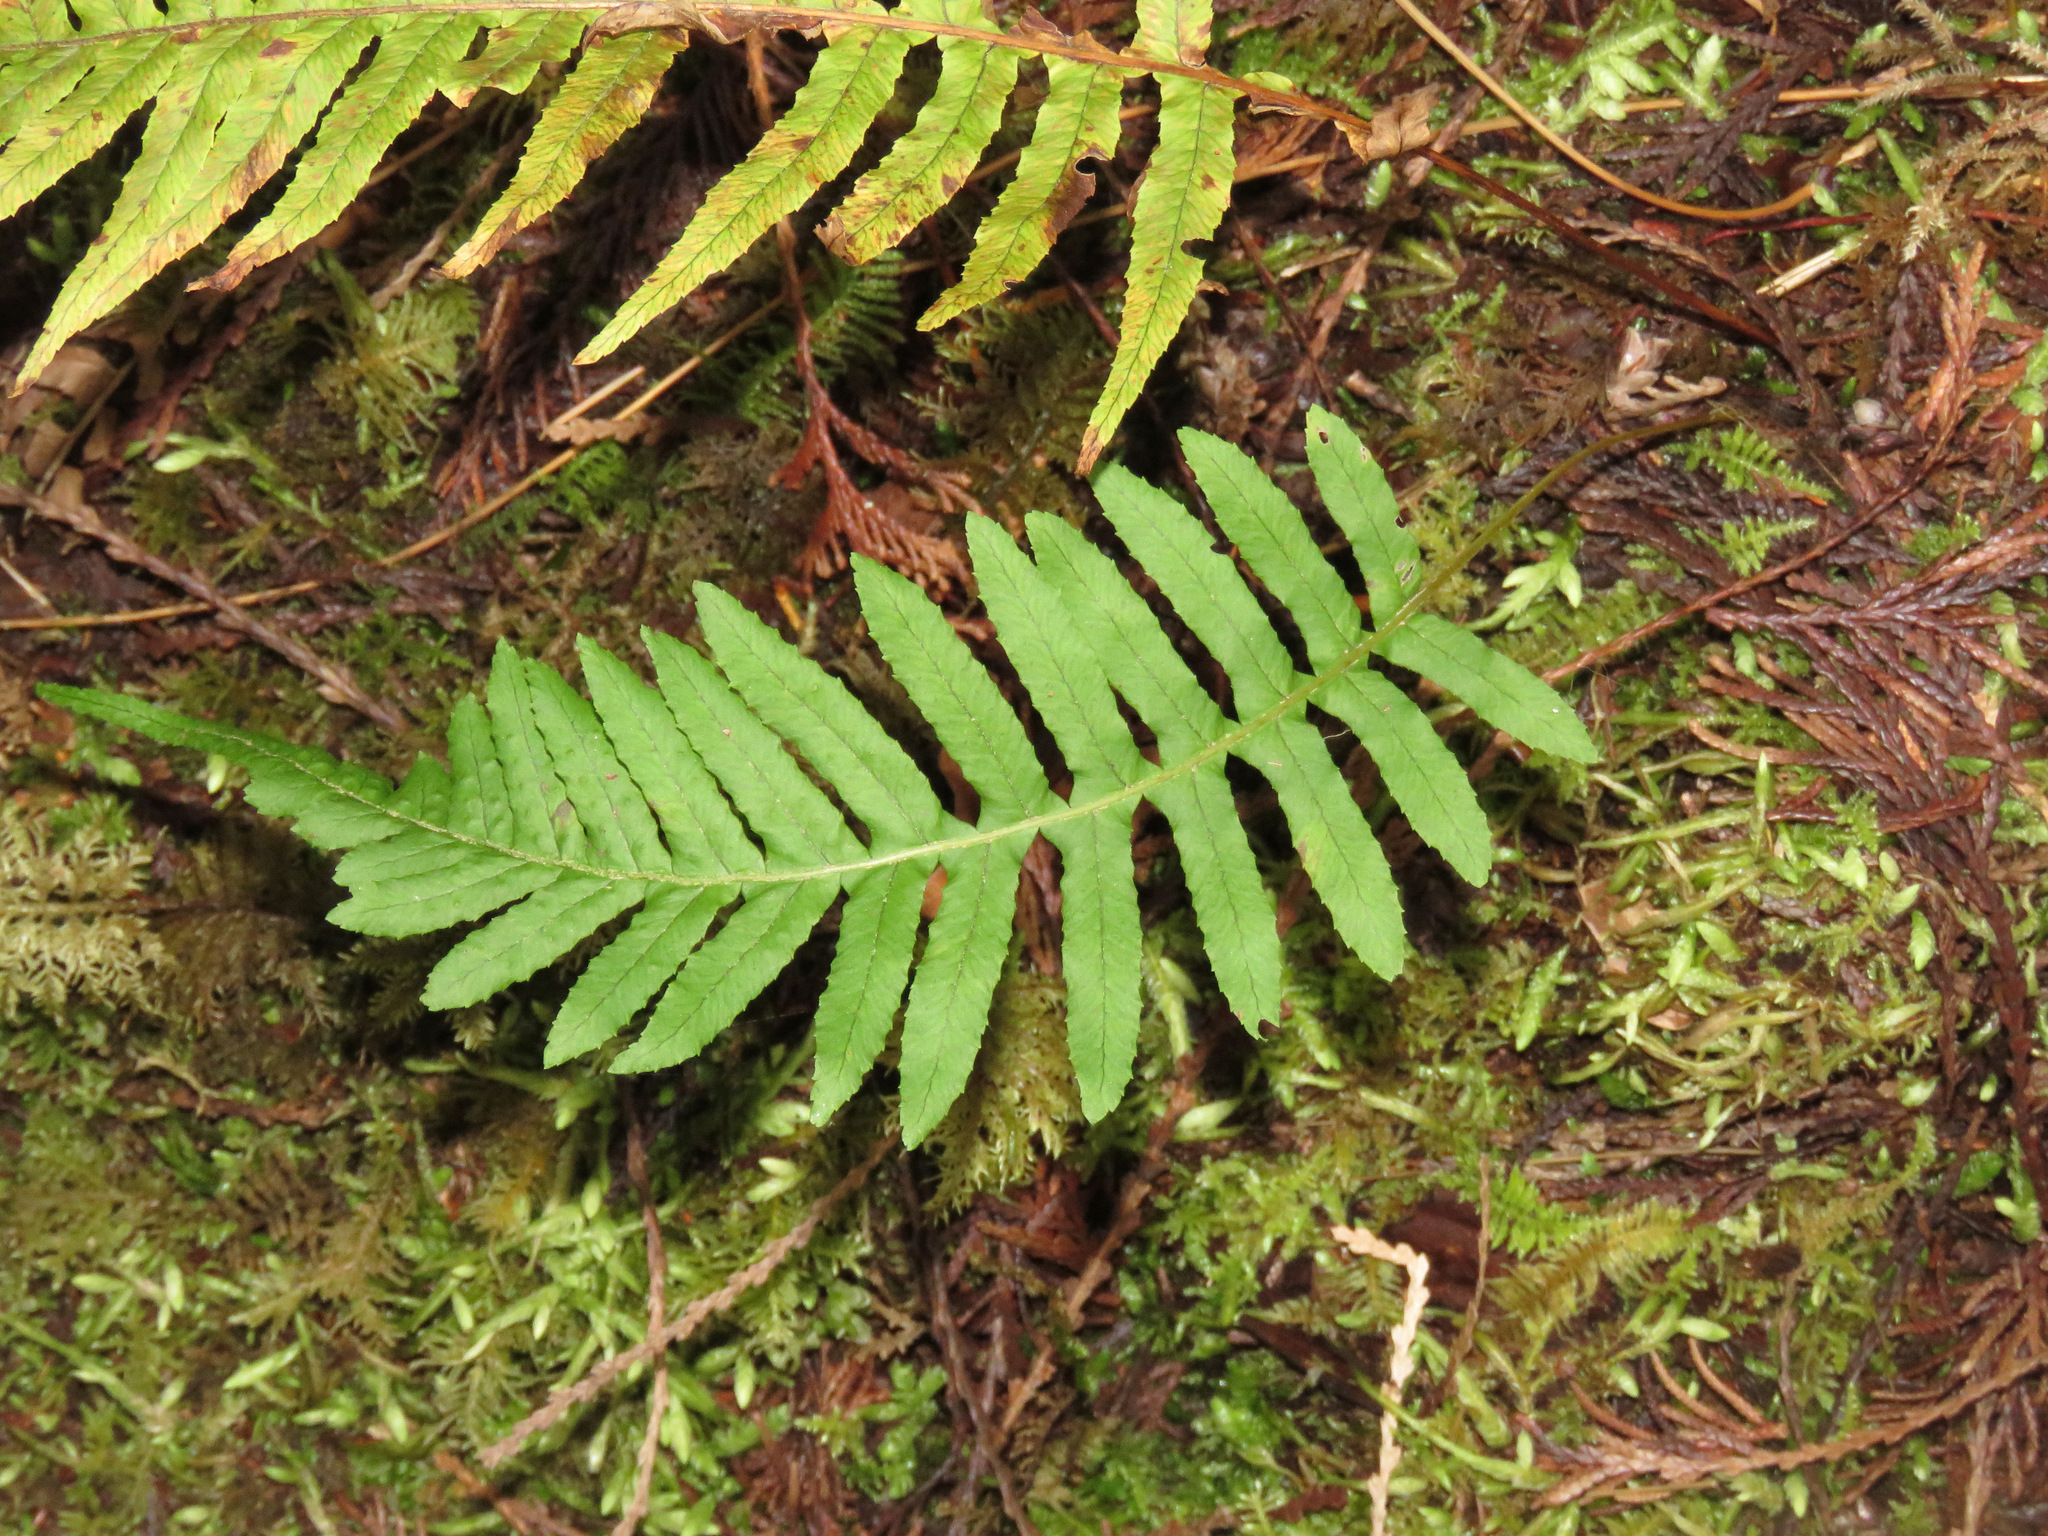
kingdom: Plantae
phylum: Tracheophyta
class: Polypodiopsida
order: Polypodiales
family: Polypodiaceae
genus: Polypodium
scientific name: Polypodium glycyrrhiza
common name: Licorice fern
